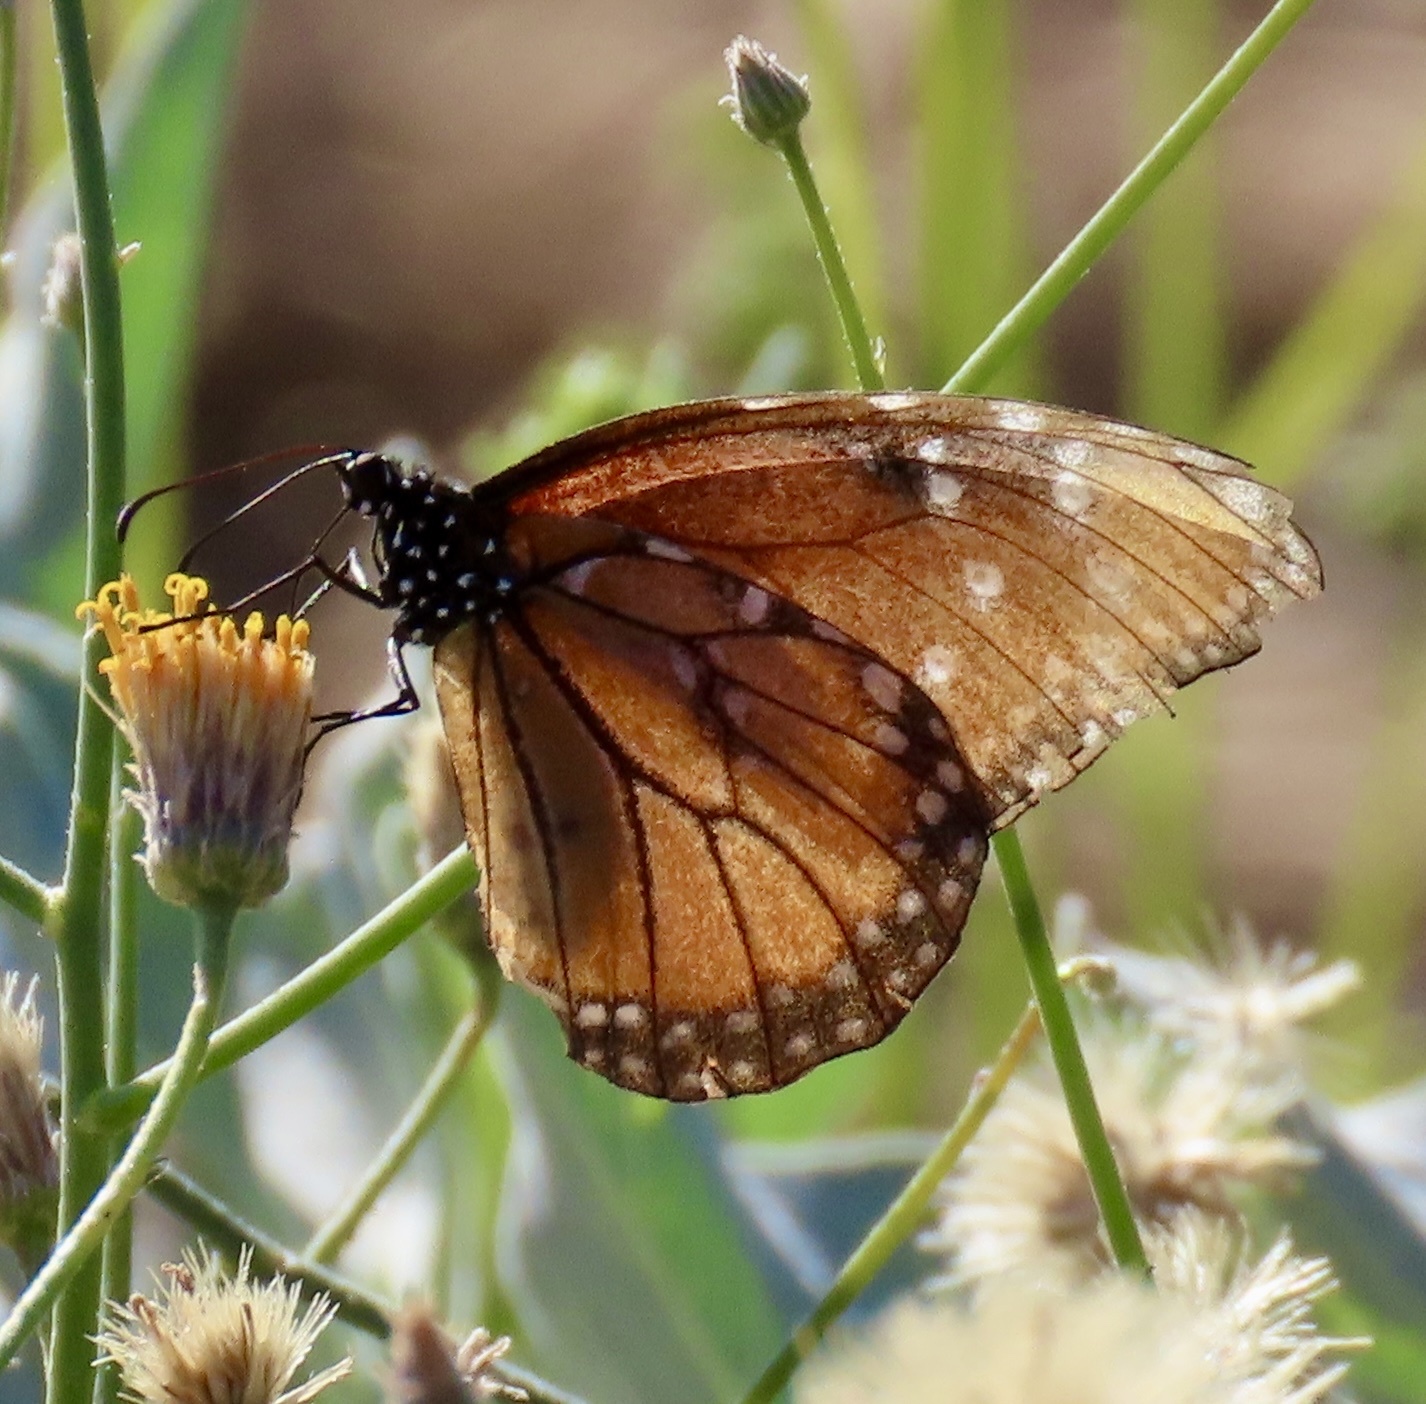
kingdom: Plantae
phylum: Tracheophyta
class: Magnoliopsida
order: Asterales
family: Asteraceae
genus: Bebbia
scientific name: Bebbia juncea
